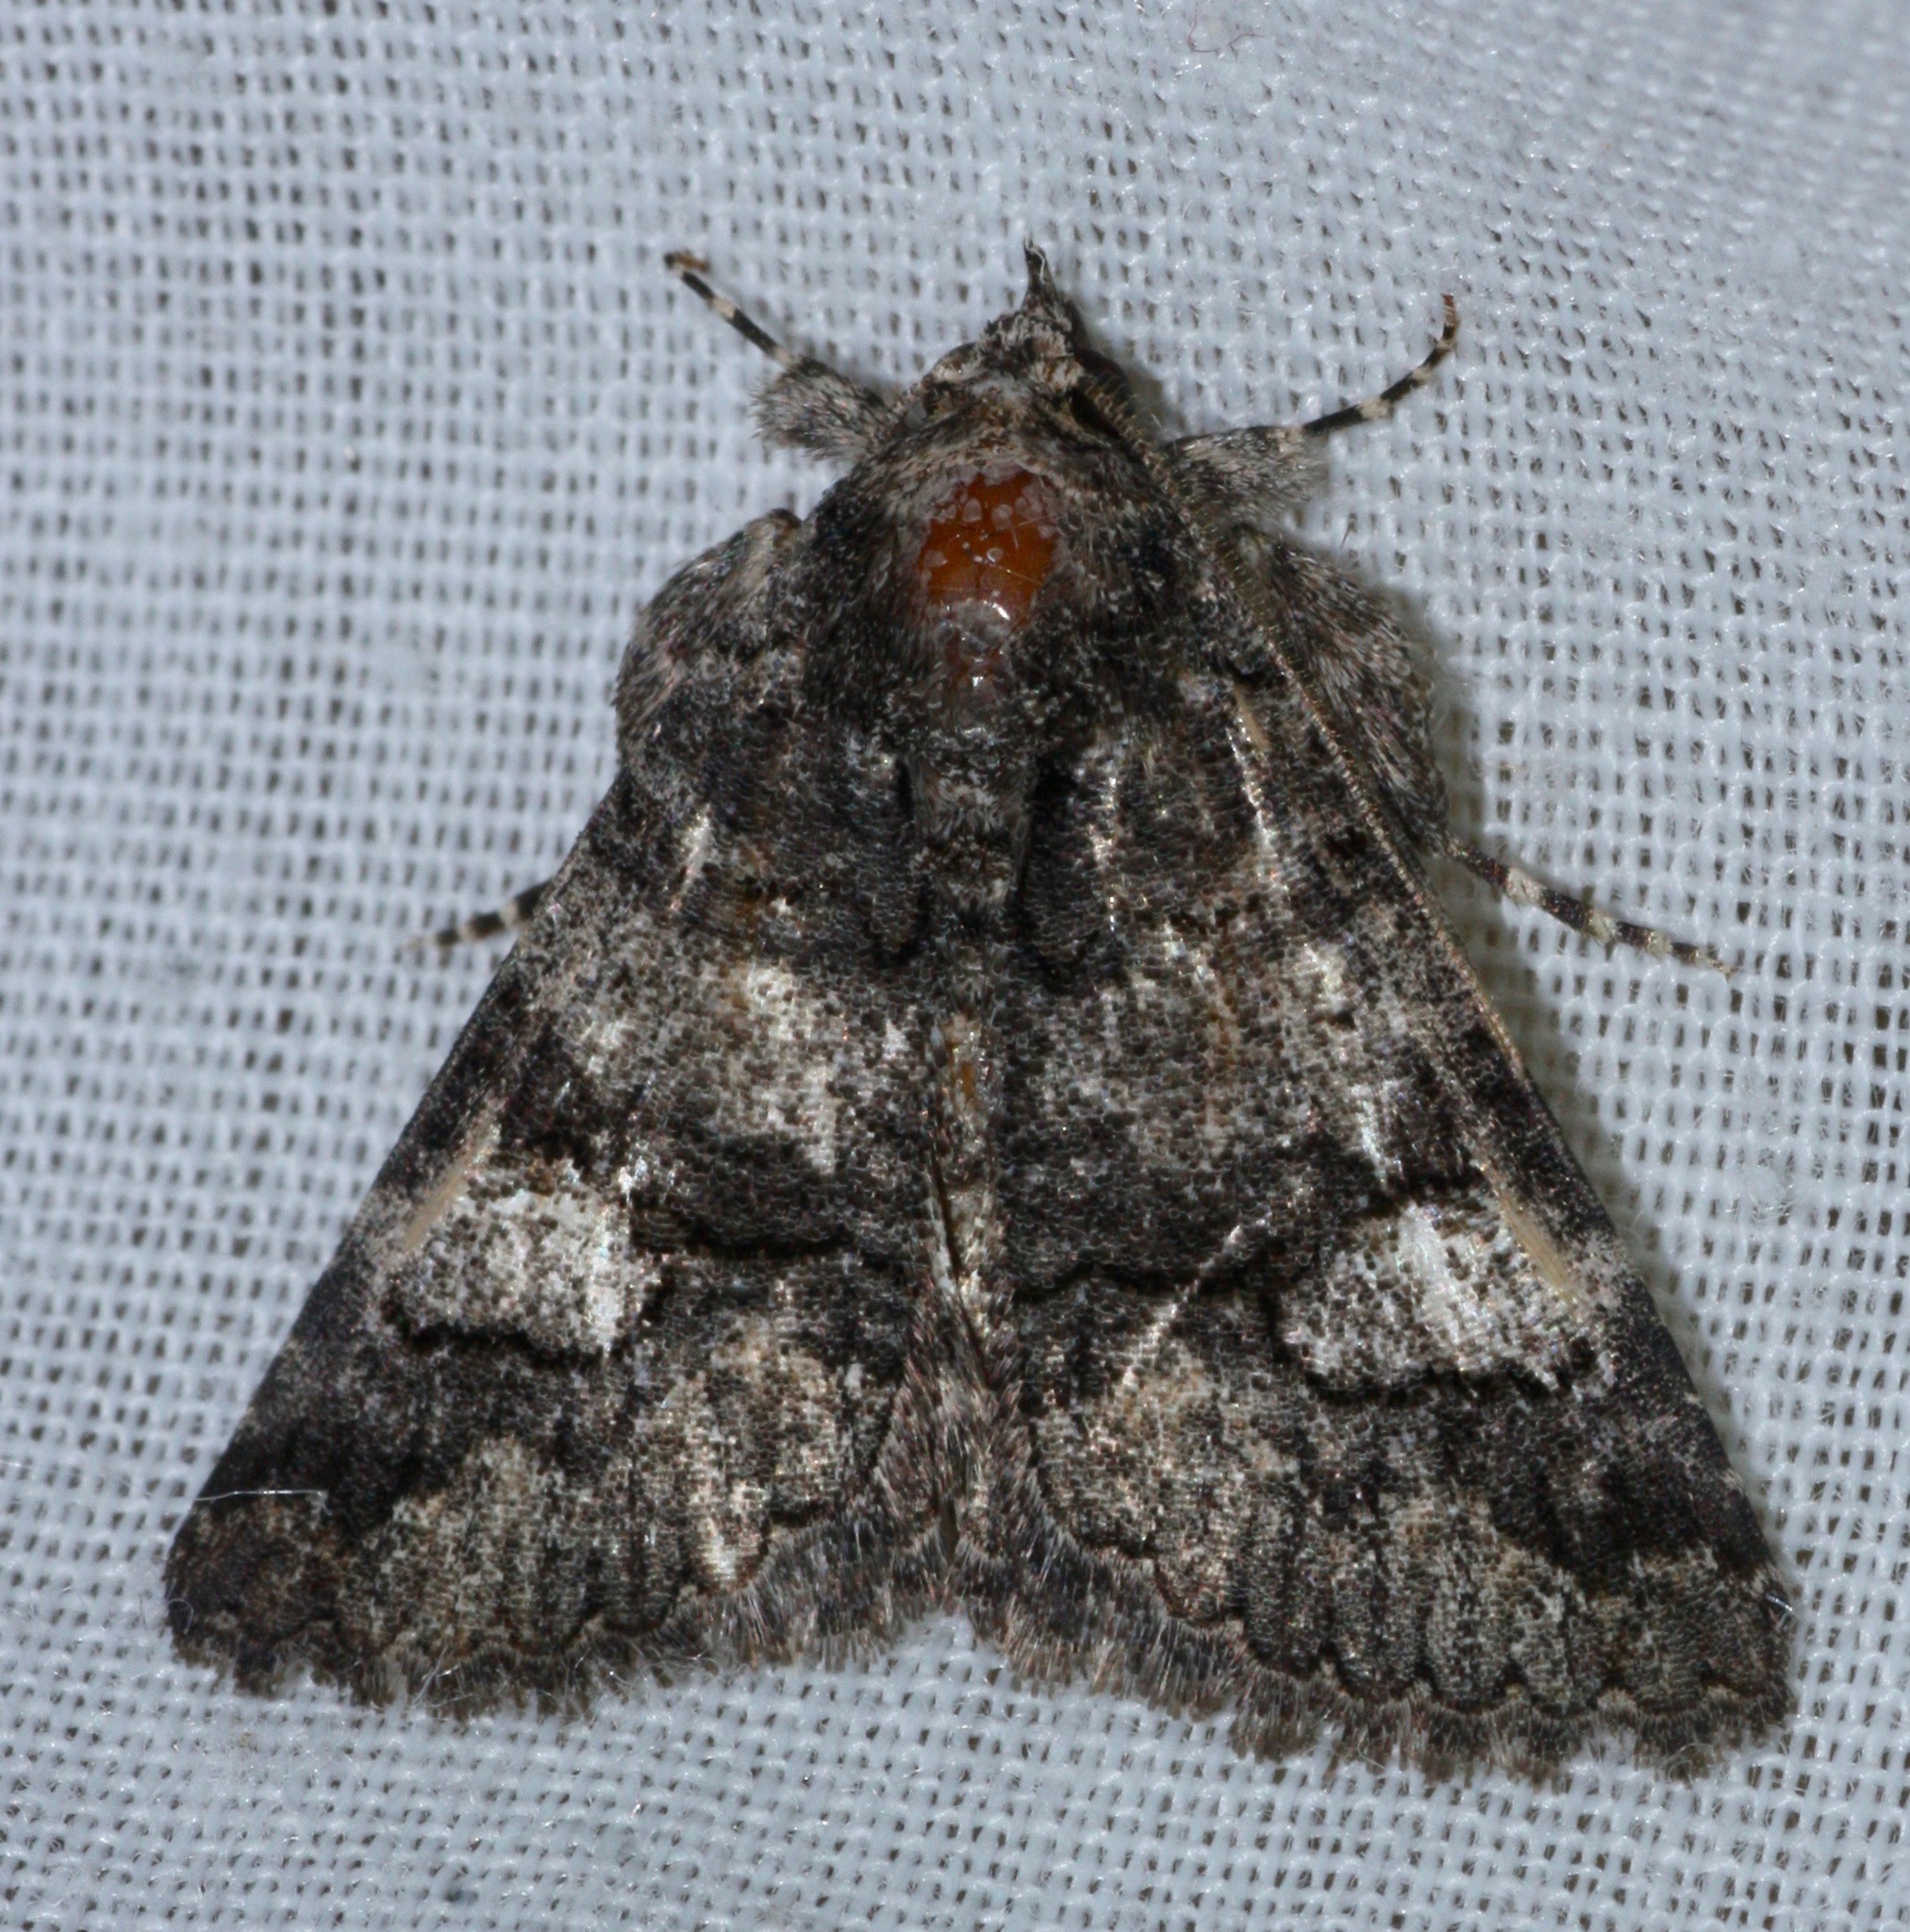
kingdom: Animalia
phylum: Arthropoda
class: Insecta
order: Lepidoptera
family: Erebidae
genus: Elousa
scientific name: Elousa mima
